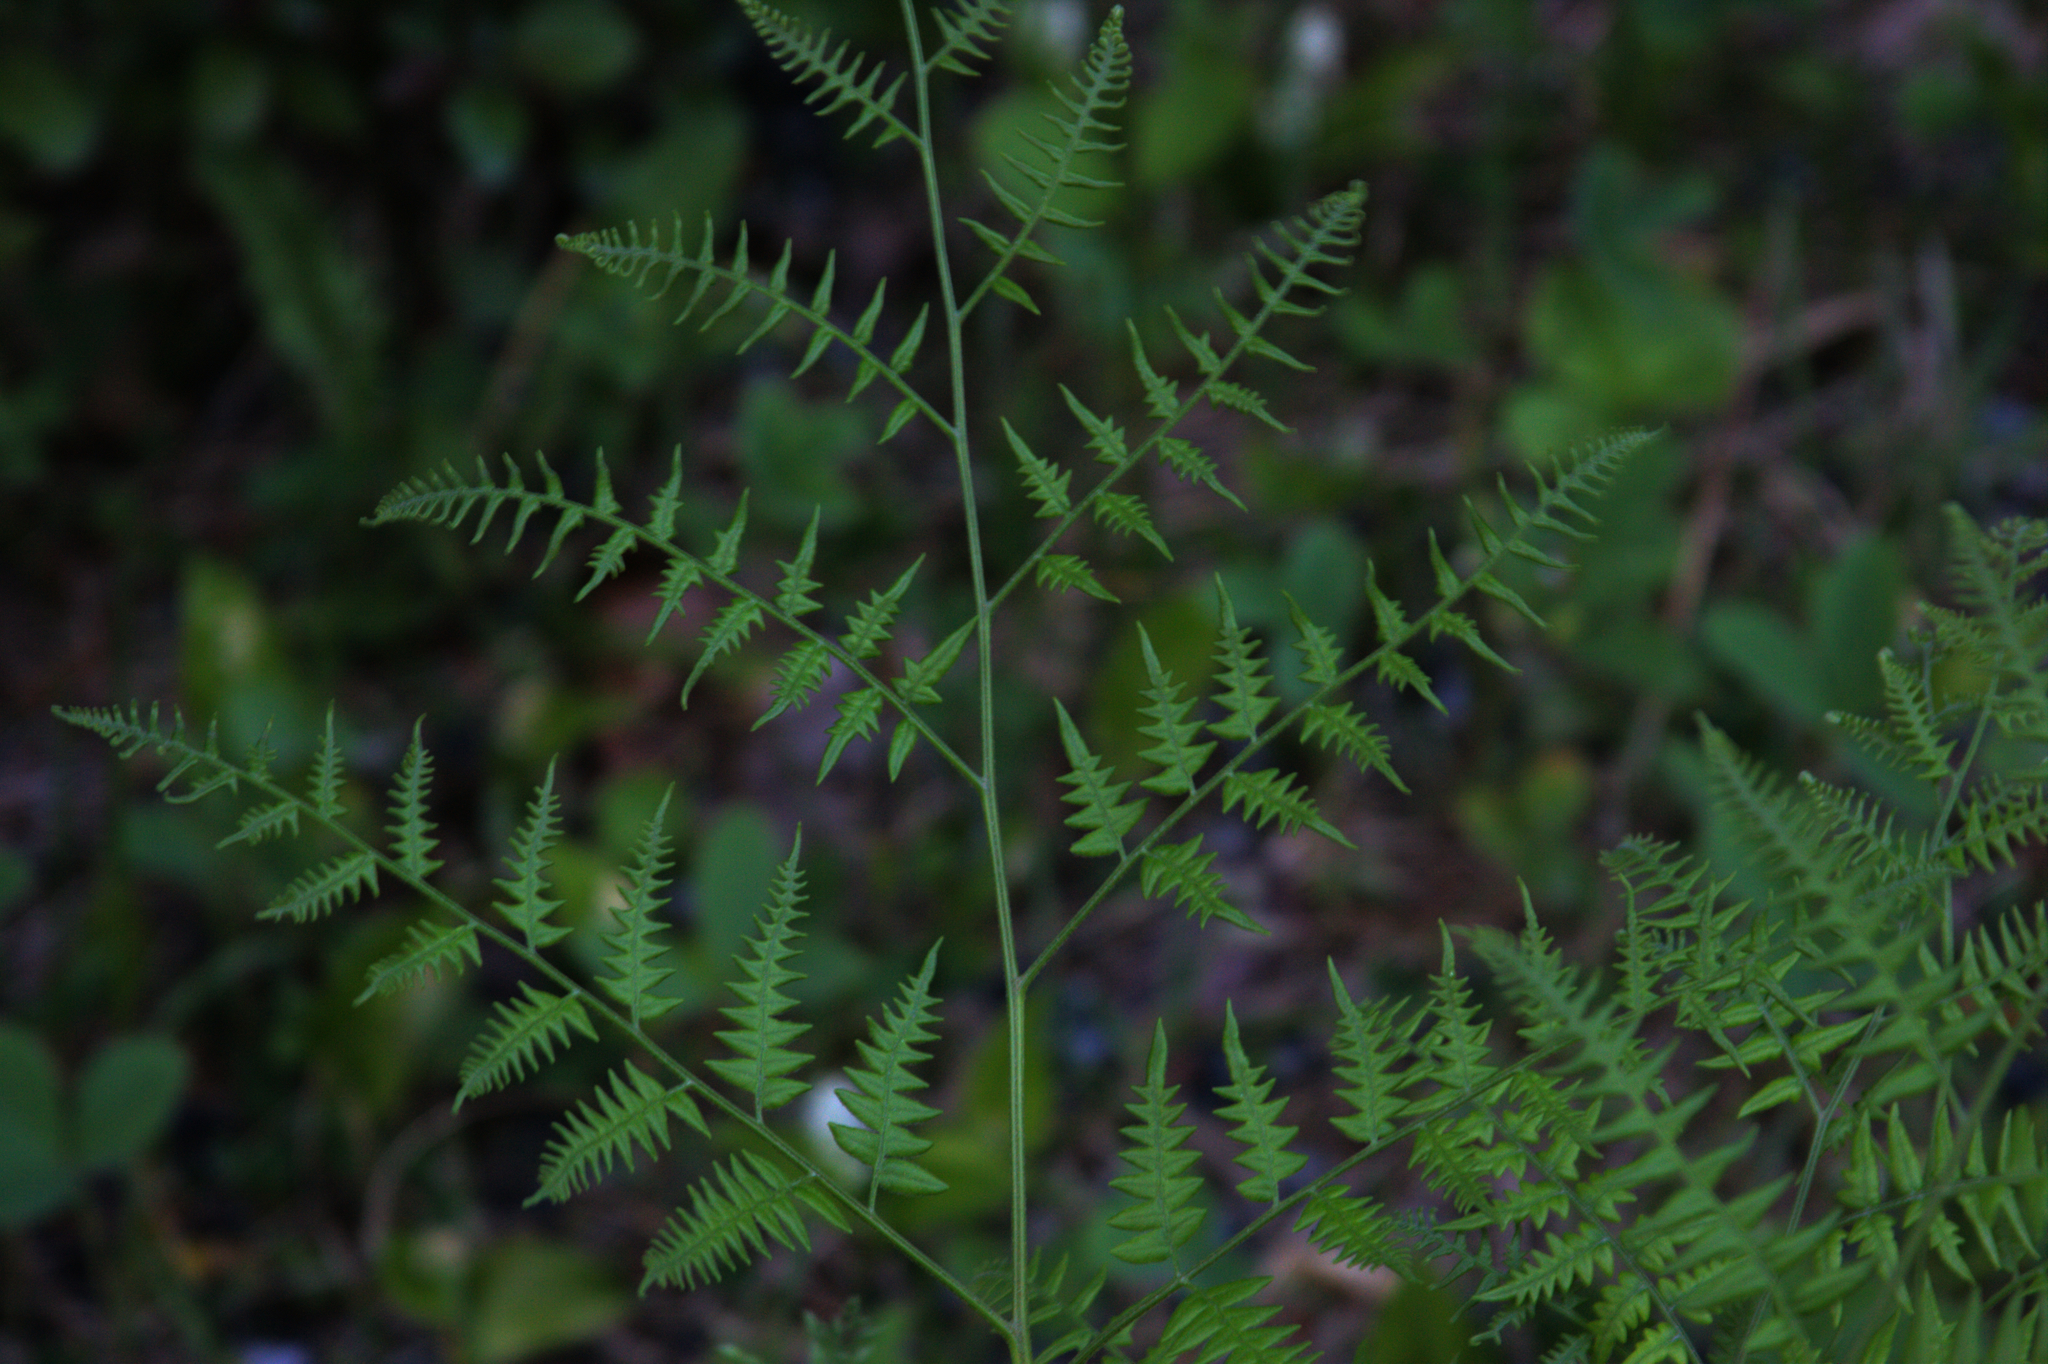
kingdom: Plantae
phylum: Tracheophyta
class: Polypodiopsida
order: Polypodiales
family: Dennstaedtiaceae
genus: Pteridium
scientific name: Pteridium aquilinum
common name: Bracken
